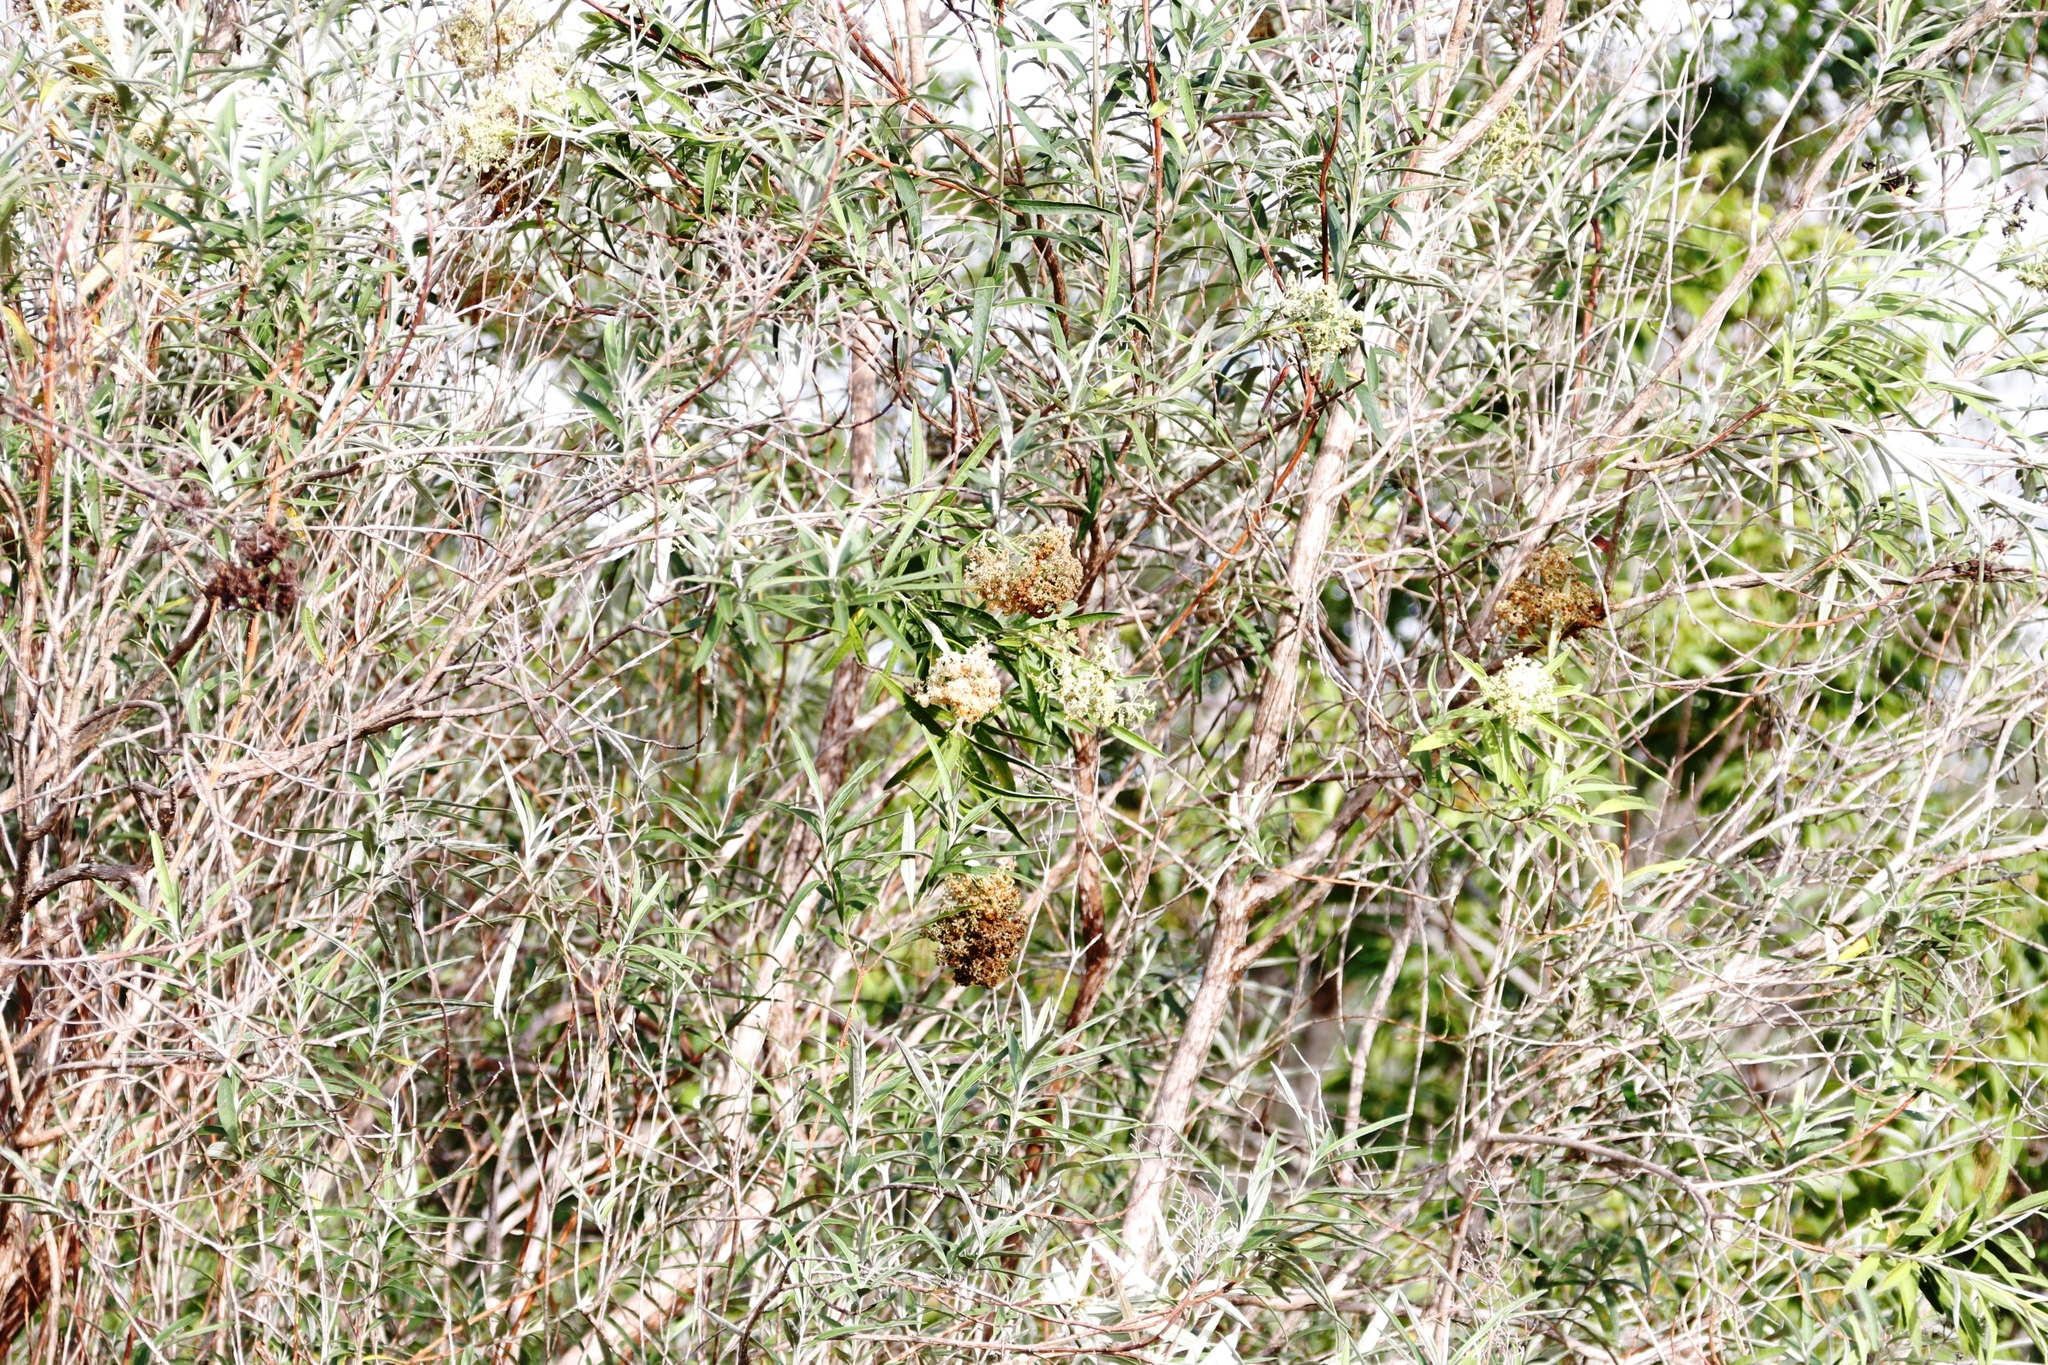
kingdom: Plantae
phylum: Tracheophyta
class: Magnoliopsida
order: Lamiales
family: Scrophulariaceae
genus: Buddleja
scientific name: Buddleja saligna
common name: False olive
